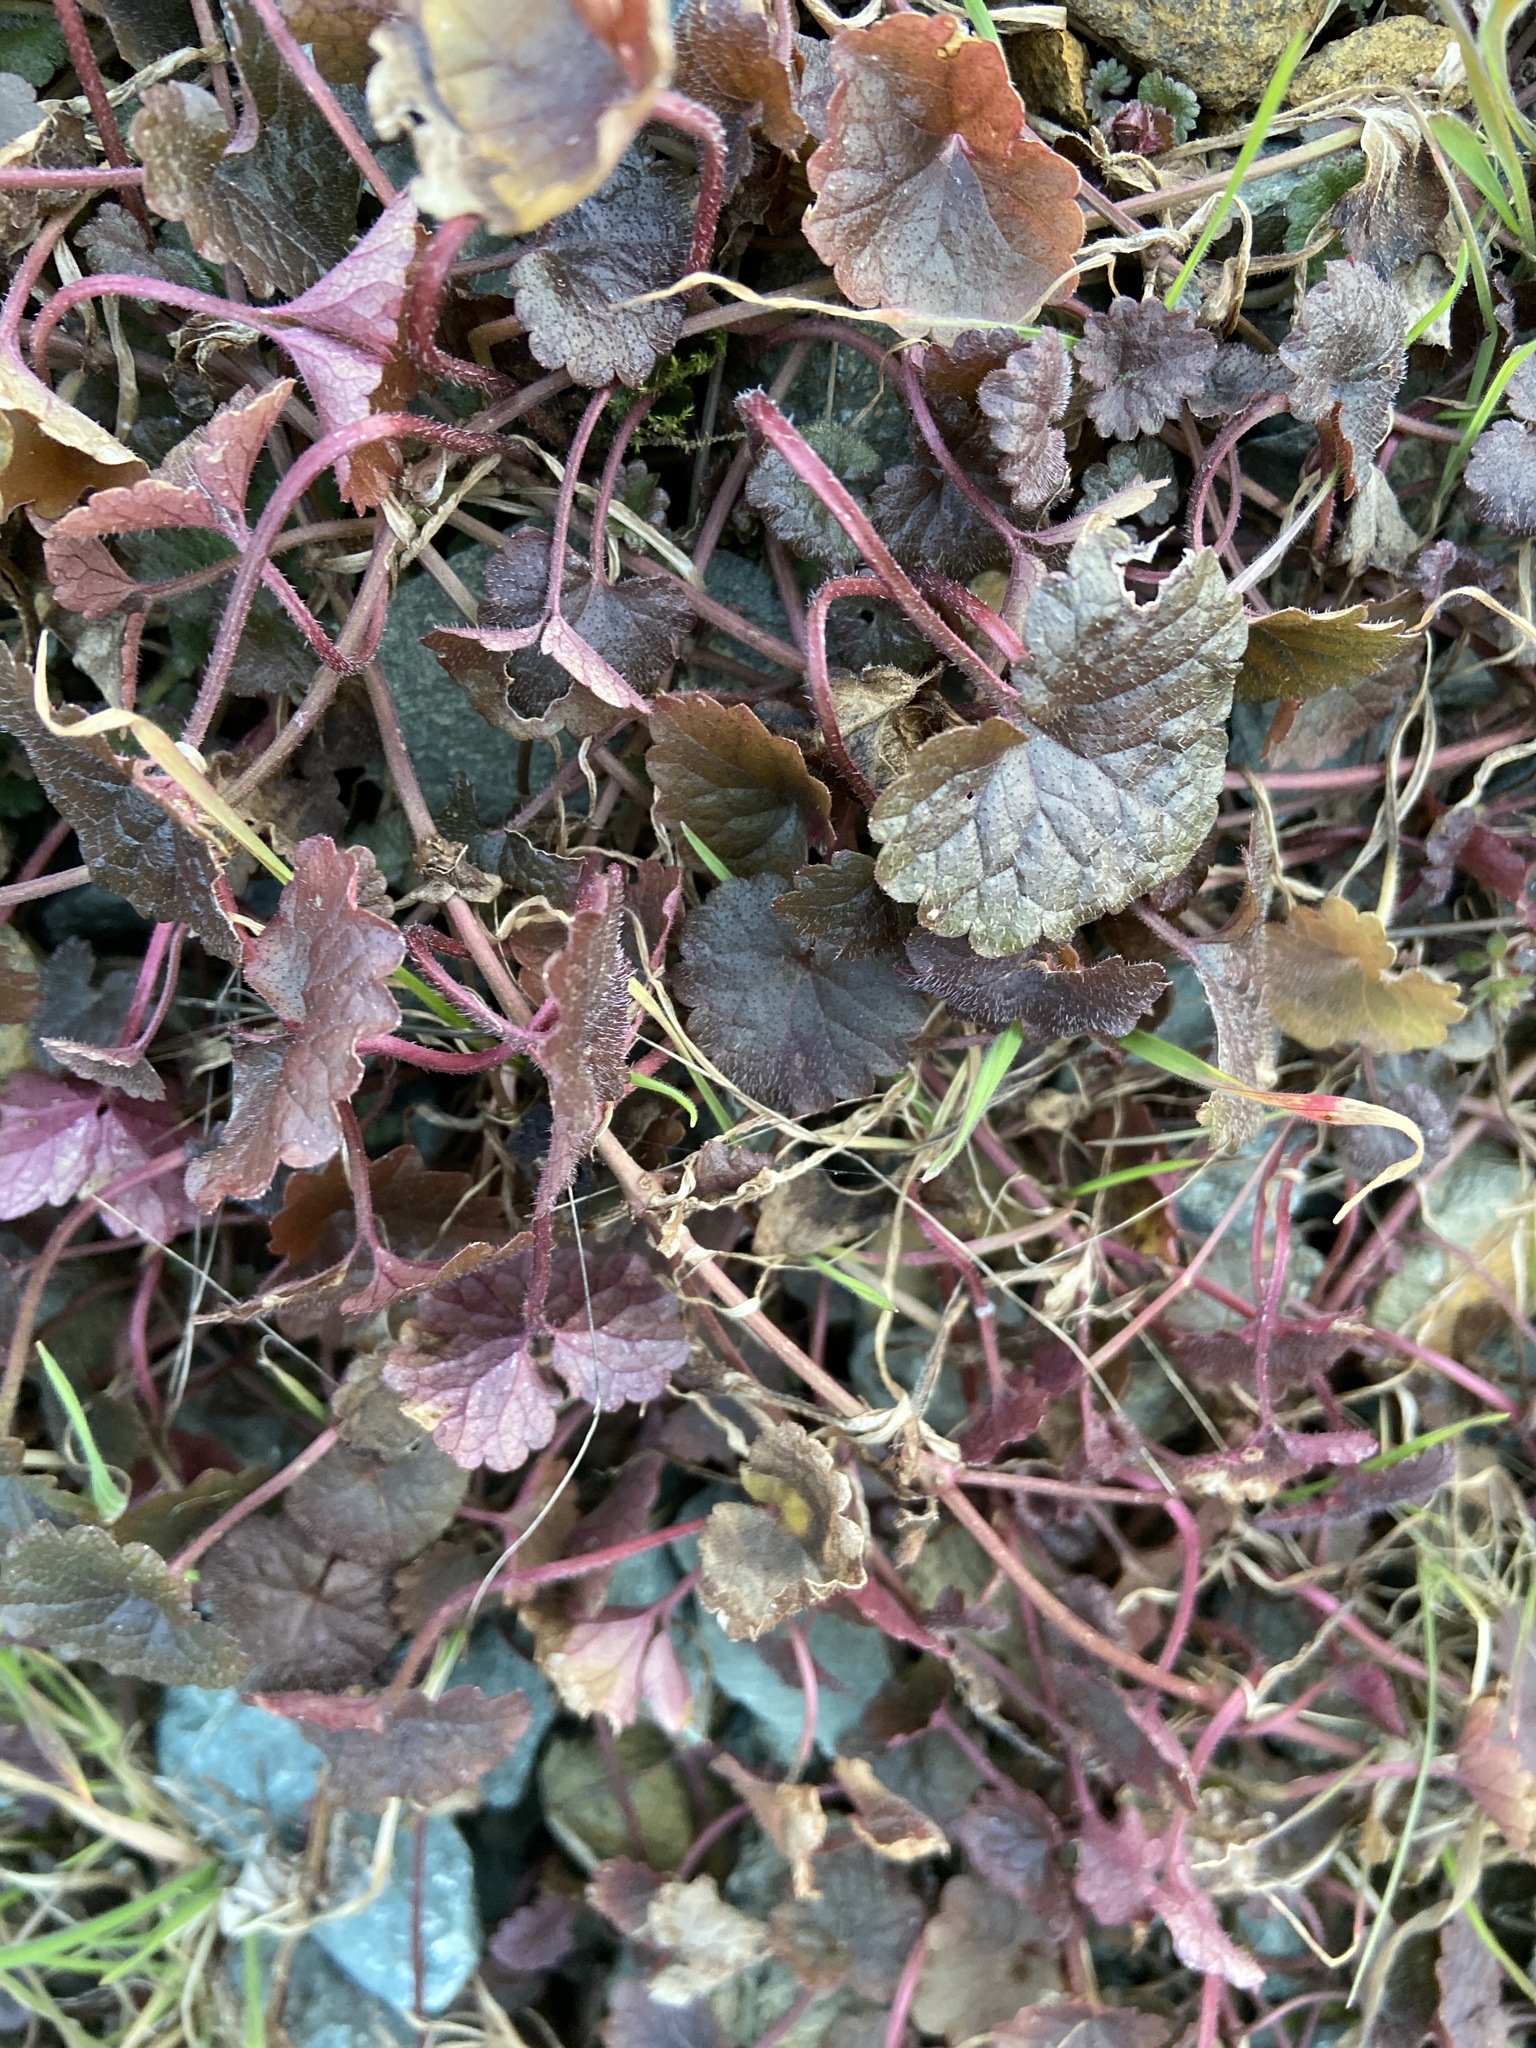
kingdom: Plantae
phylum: Tracheophyta
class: Magnoliopsida
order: Lamiales
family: Lamiaceae
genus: Glechoma
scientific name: Glechoma hederacea
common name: Ground ivy
